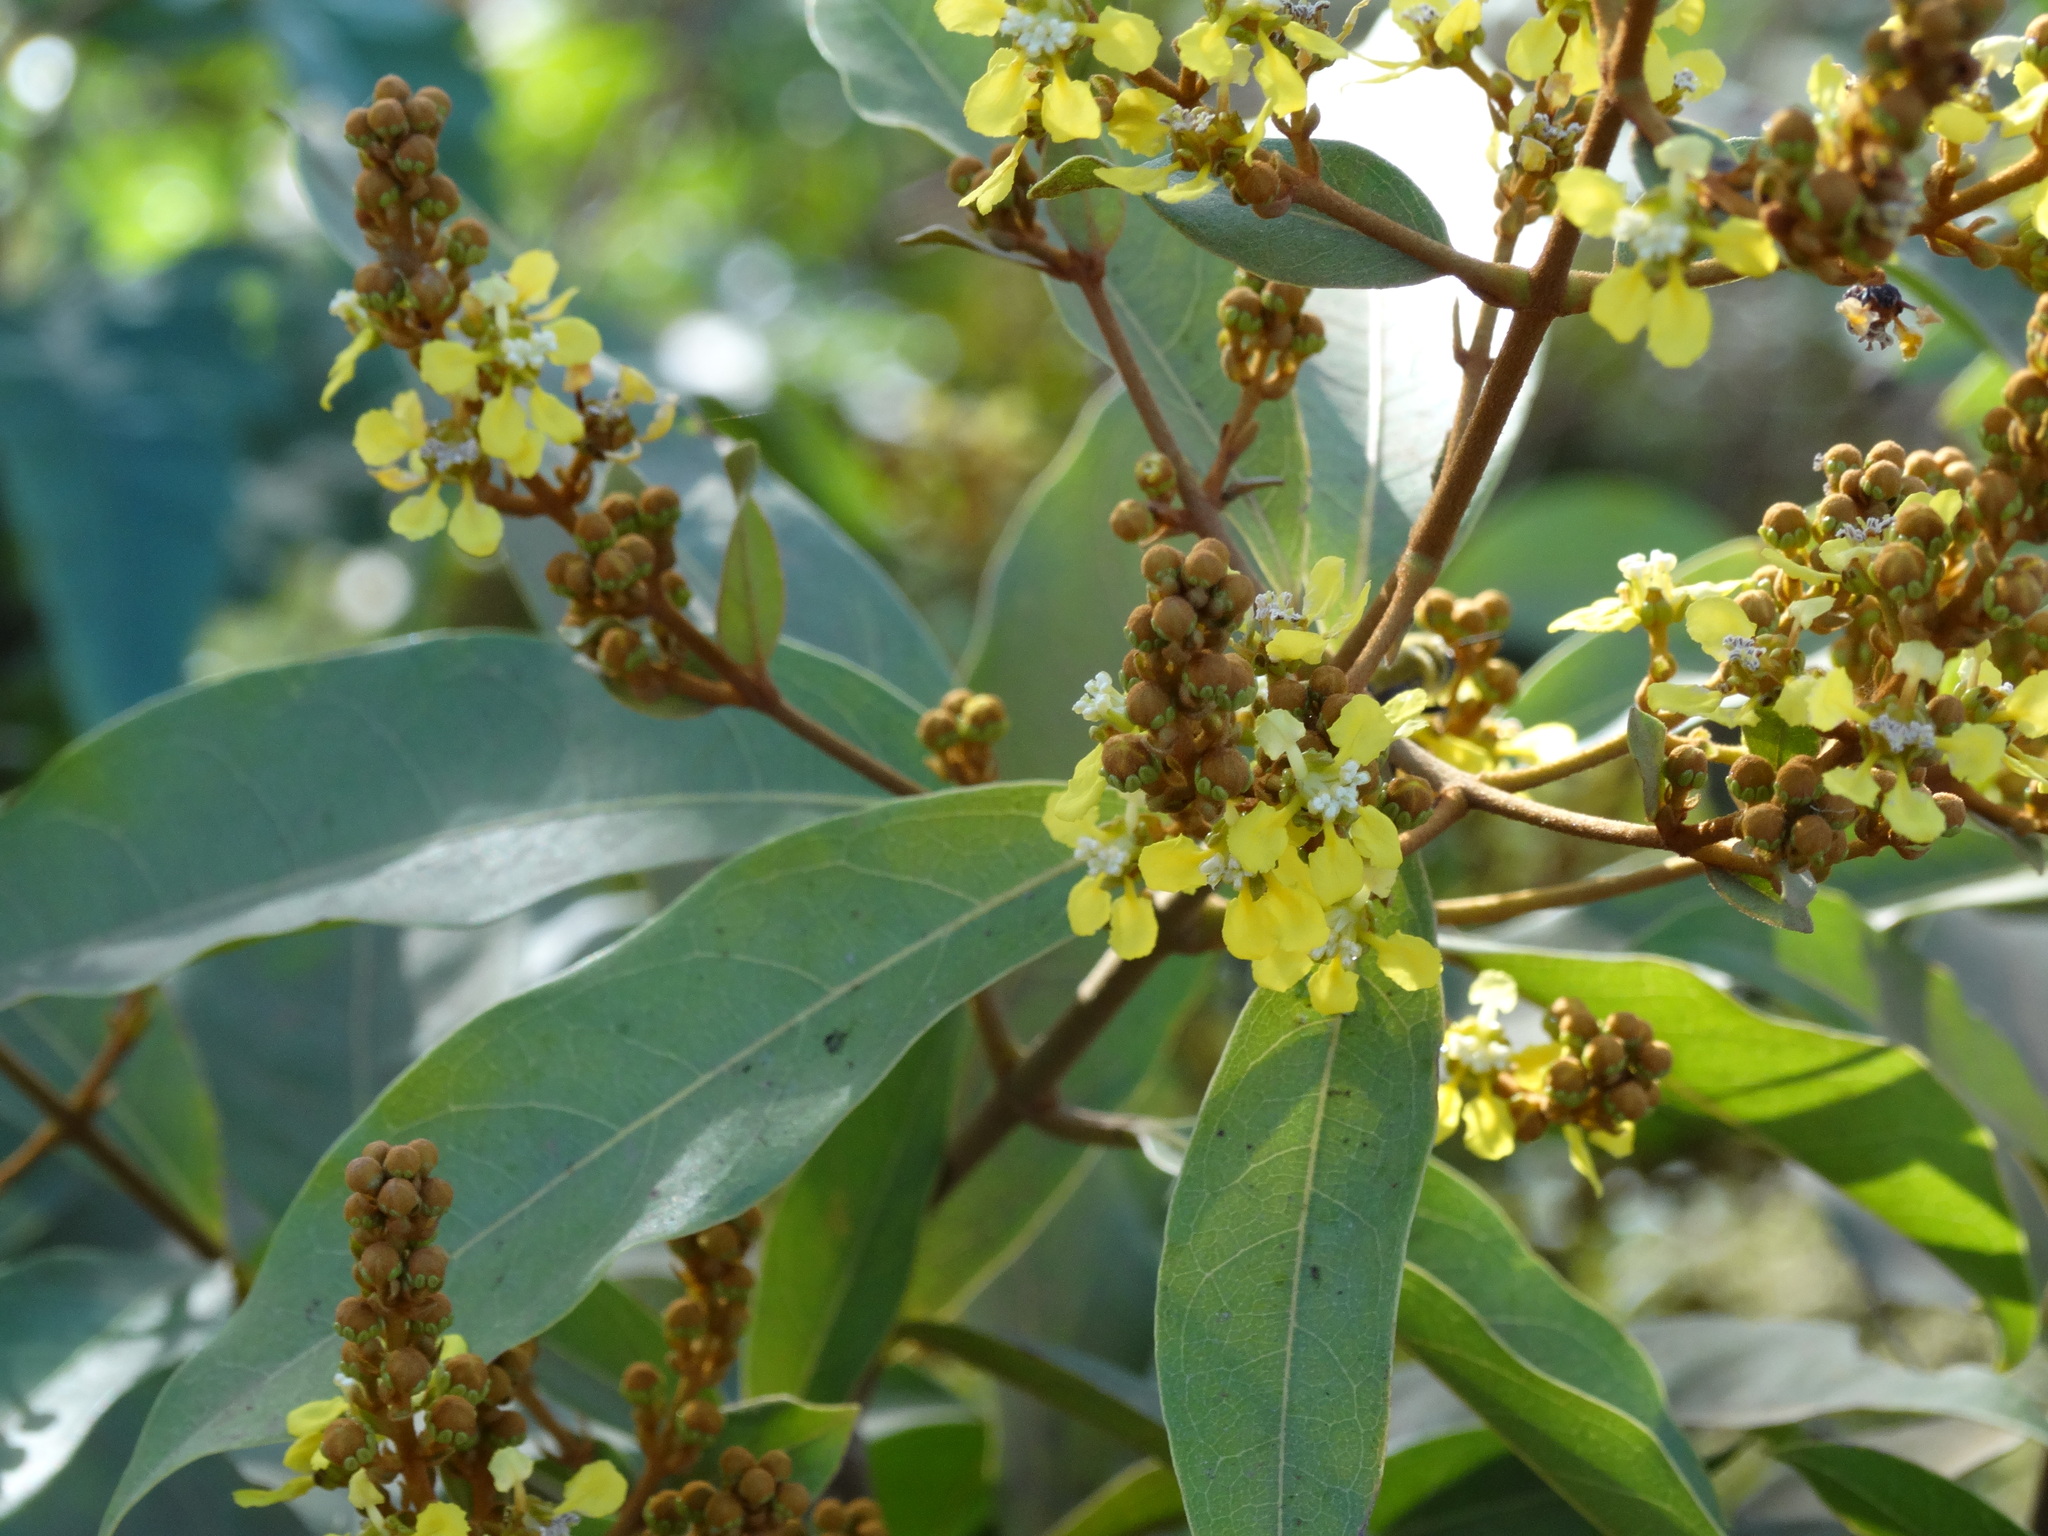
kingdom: Plantae
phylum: Tracheophyta
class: Magnoliopsida
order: Malpighiales
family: Malpighiaceae
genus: Byrsonima
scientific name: Byrsonima crassifolia
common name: Golden spoon
